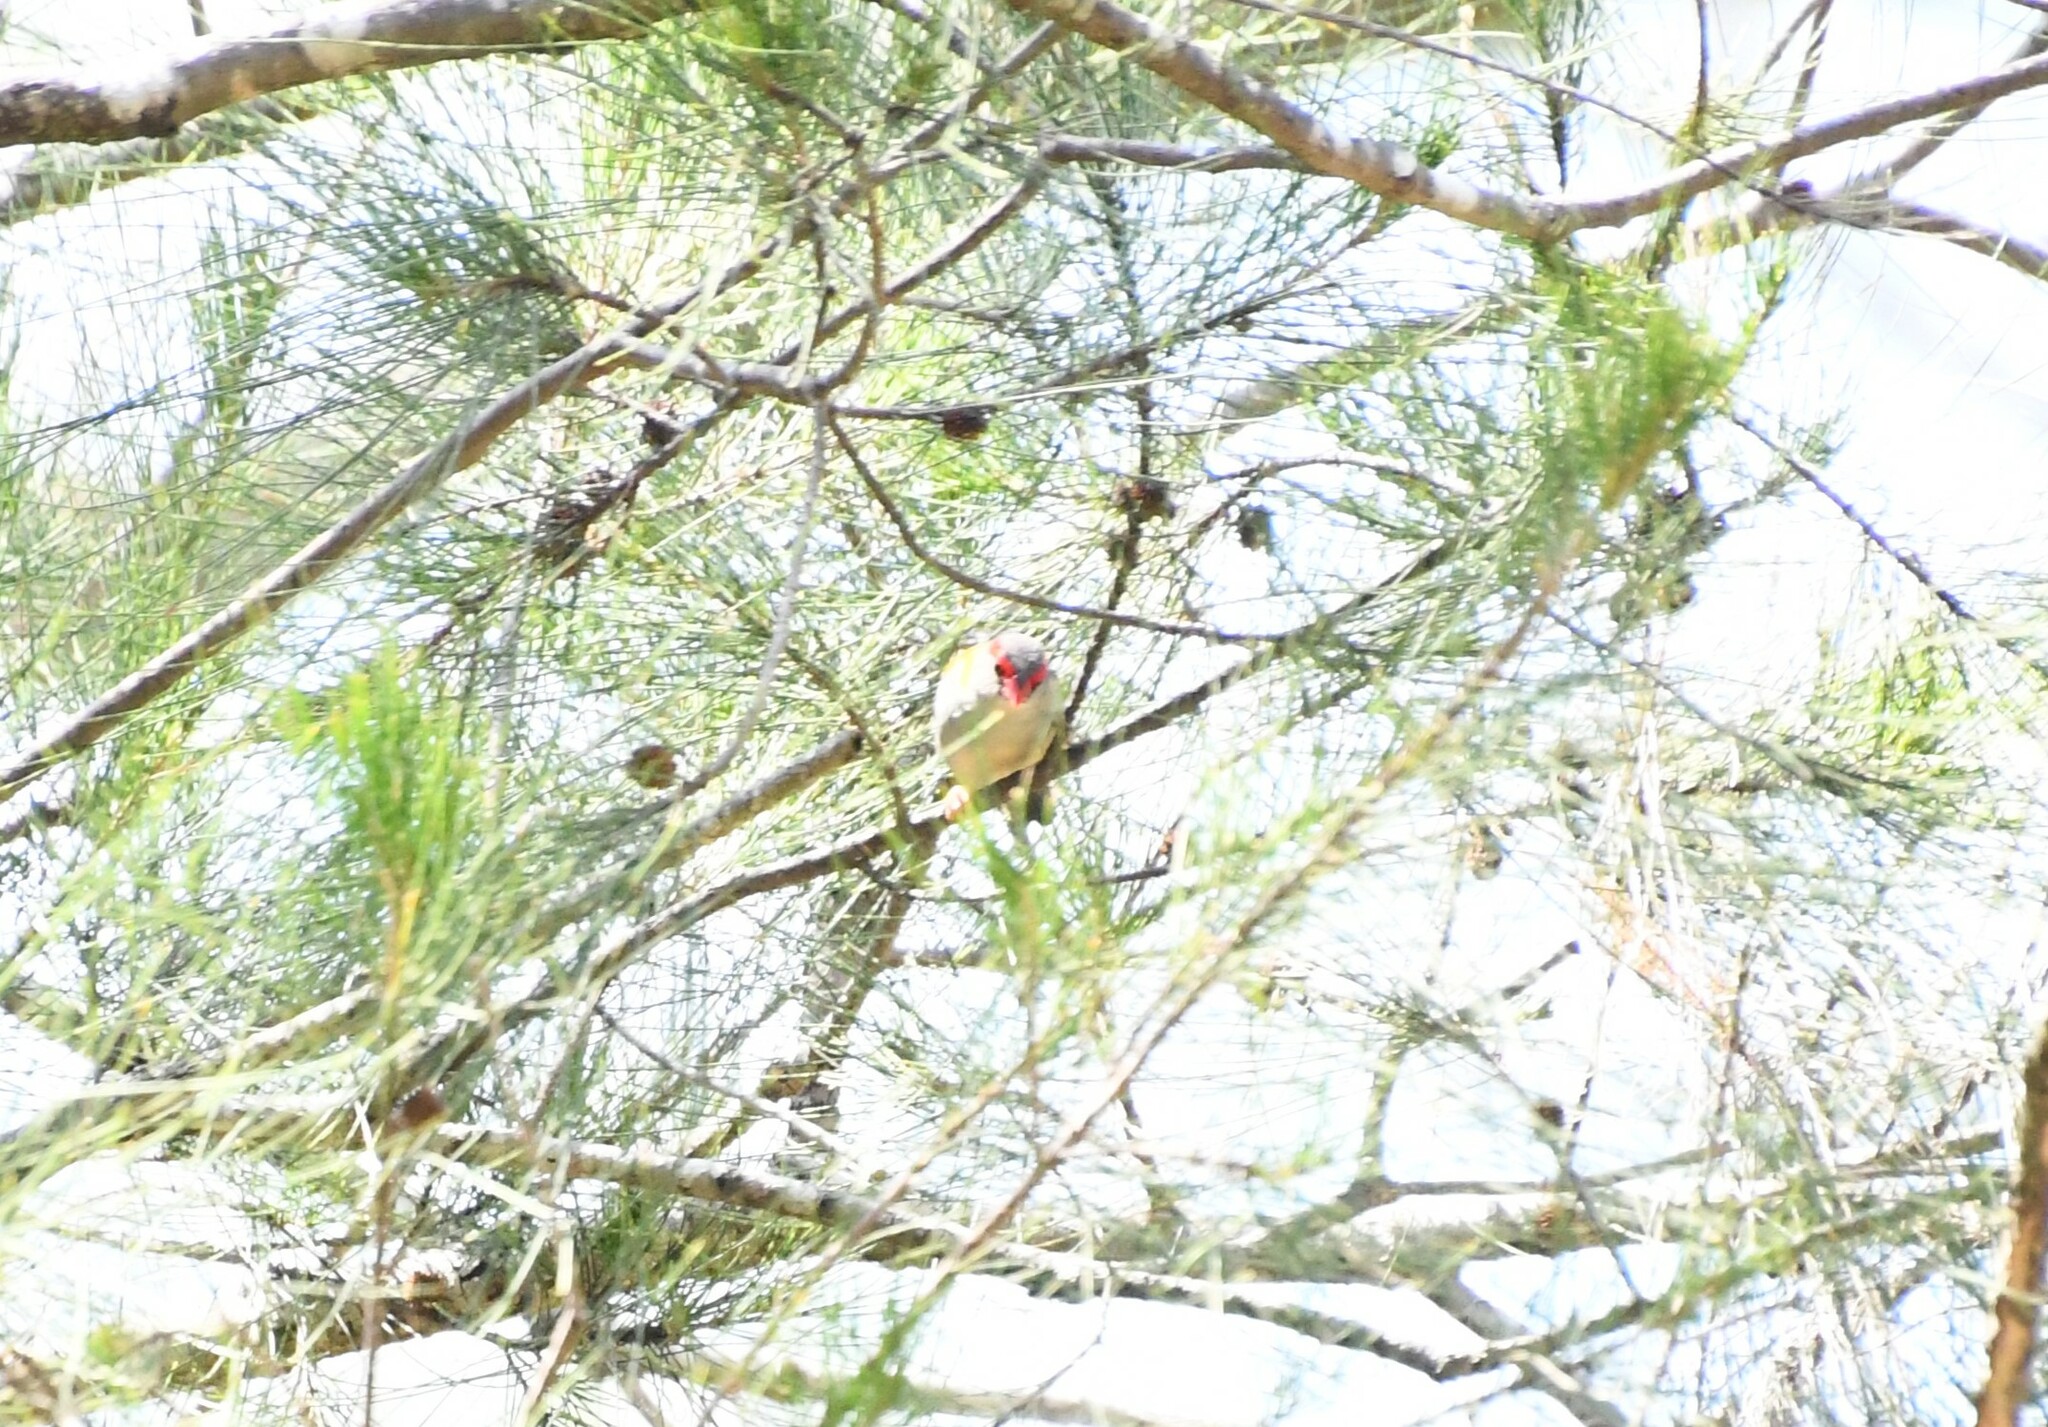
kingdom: Animalia
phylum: Chordata
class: Aves
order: Passeriformes
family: Estrildidae
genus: Neochmia
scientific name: Neochmia temporalis
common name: Red-browed finch
